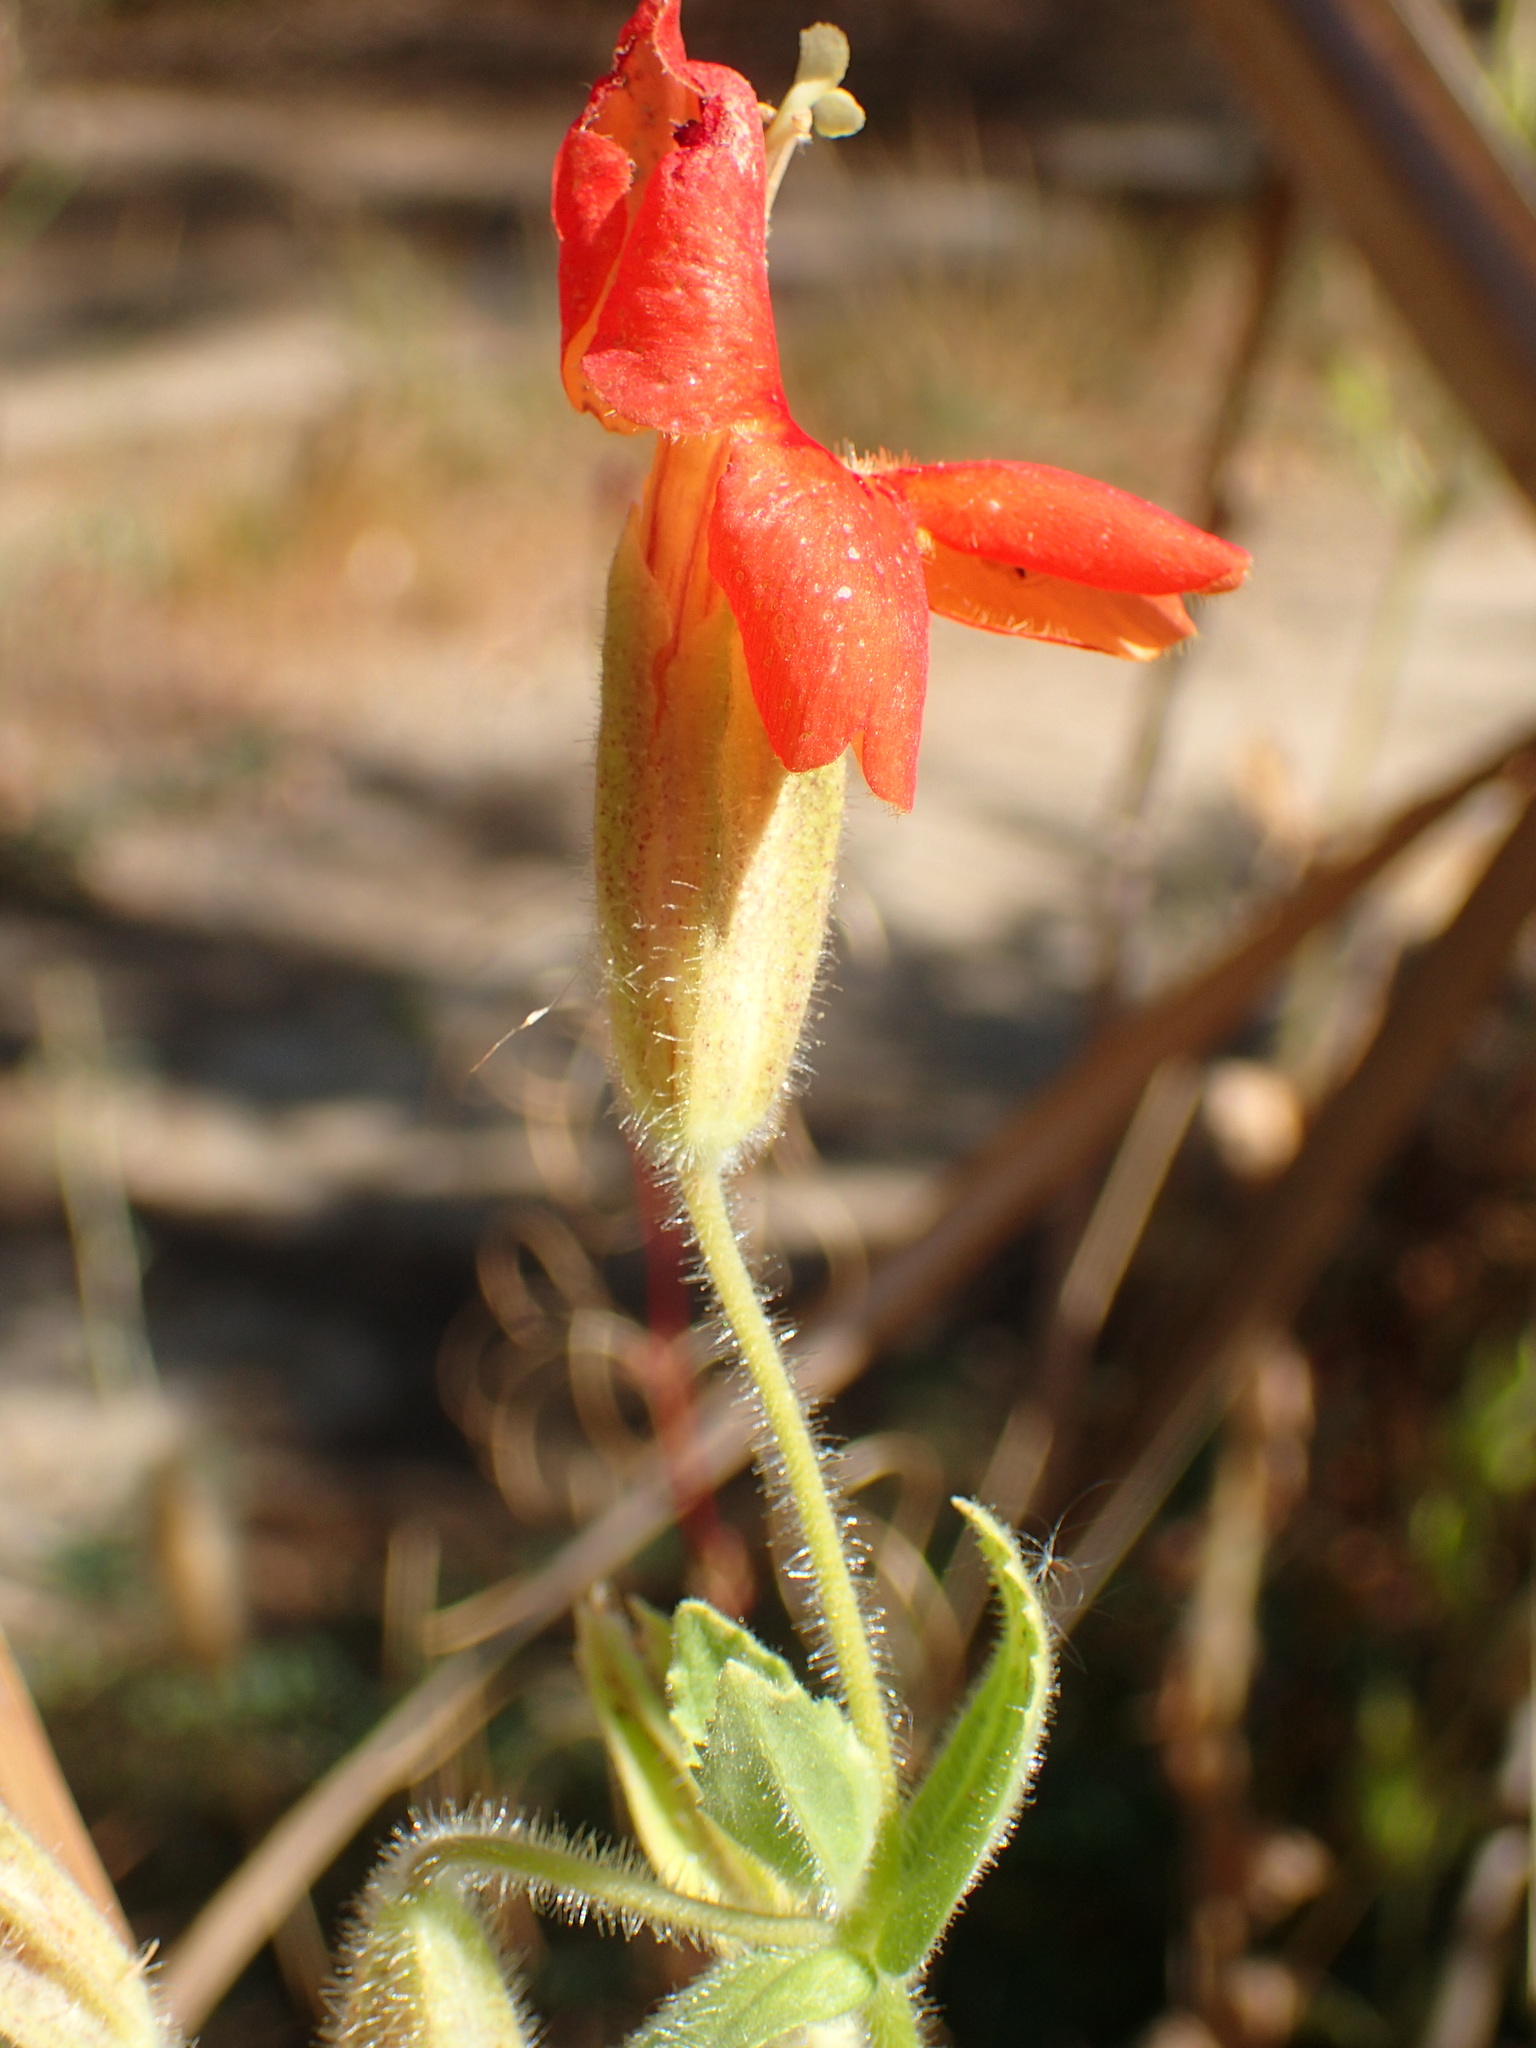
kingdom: Plantae
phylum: Tracheophyta
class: Magnoliopsida
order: Lamiales
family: Phrymaceae
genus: Erythranthe
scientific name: Erythranthe cardinalis
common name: Scarlet monkey-flower
